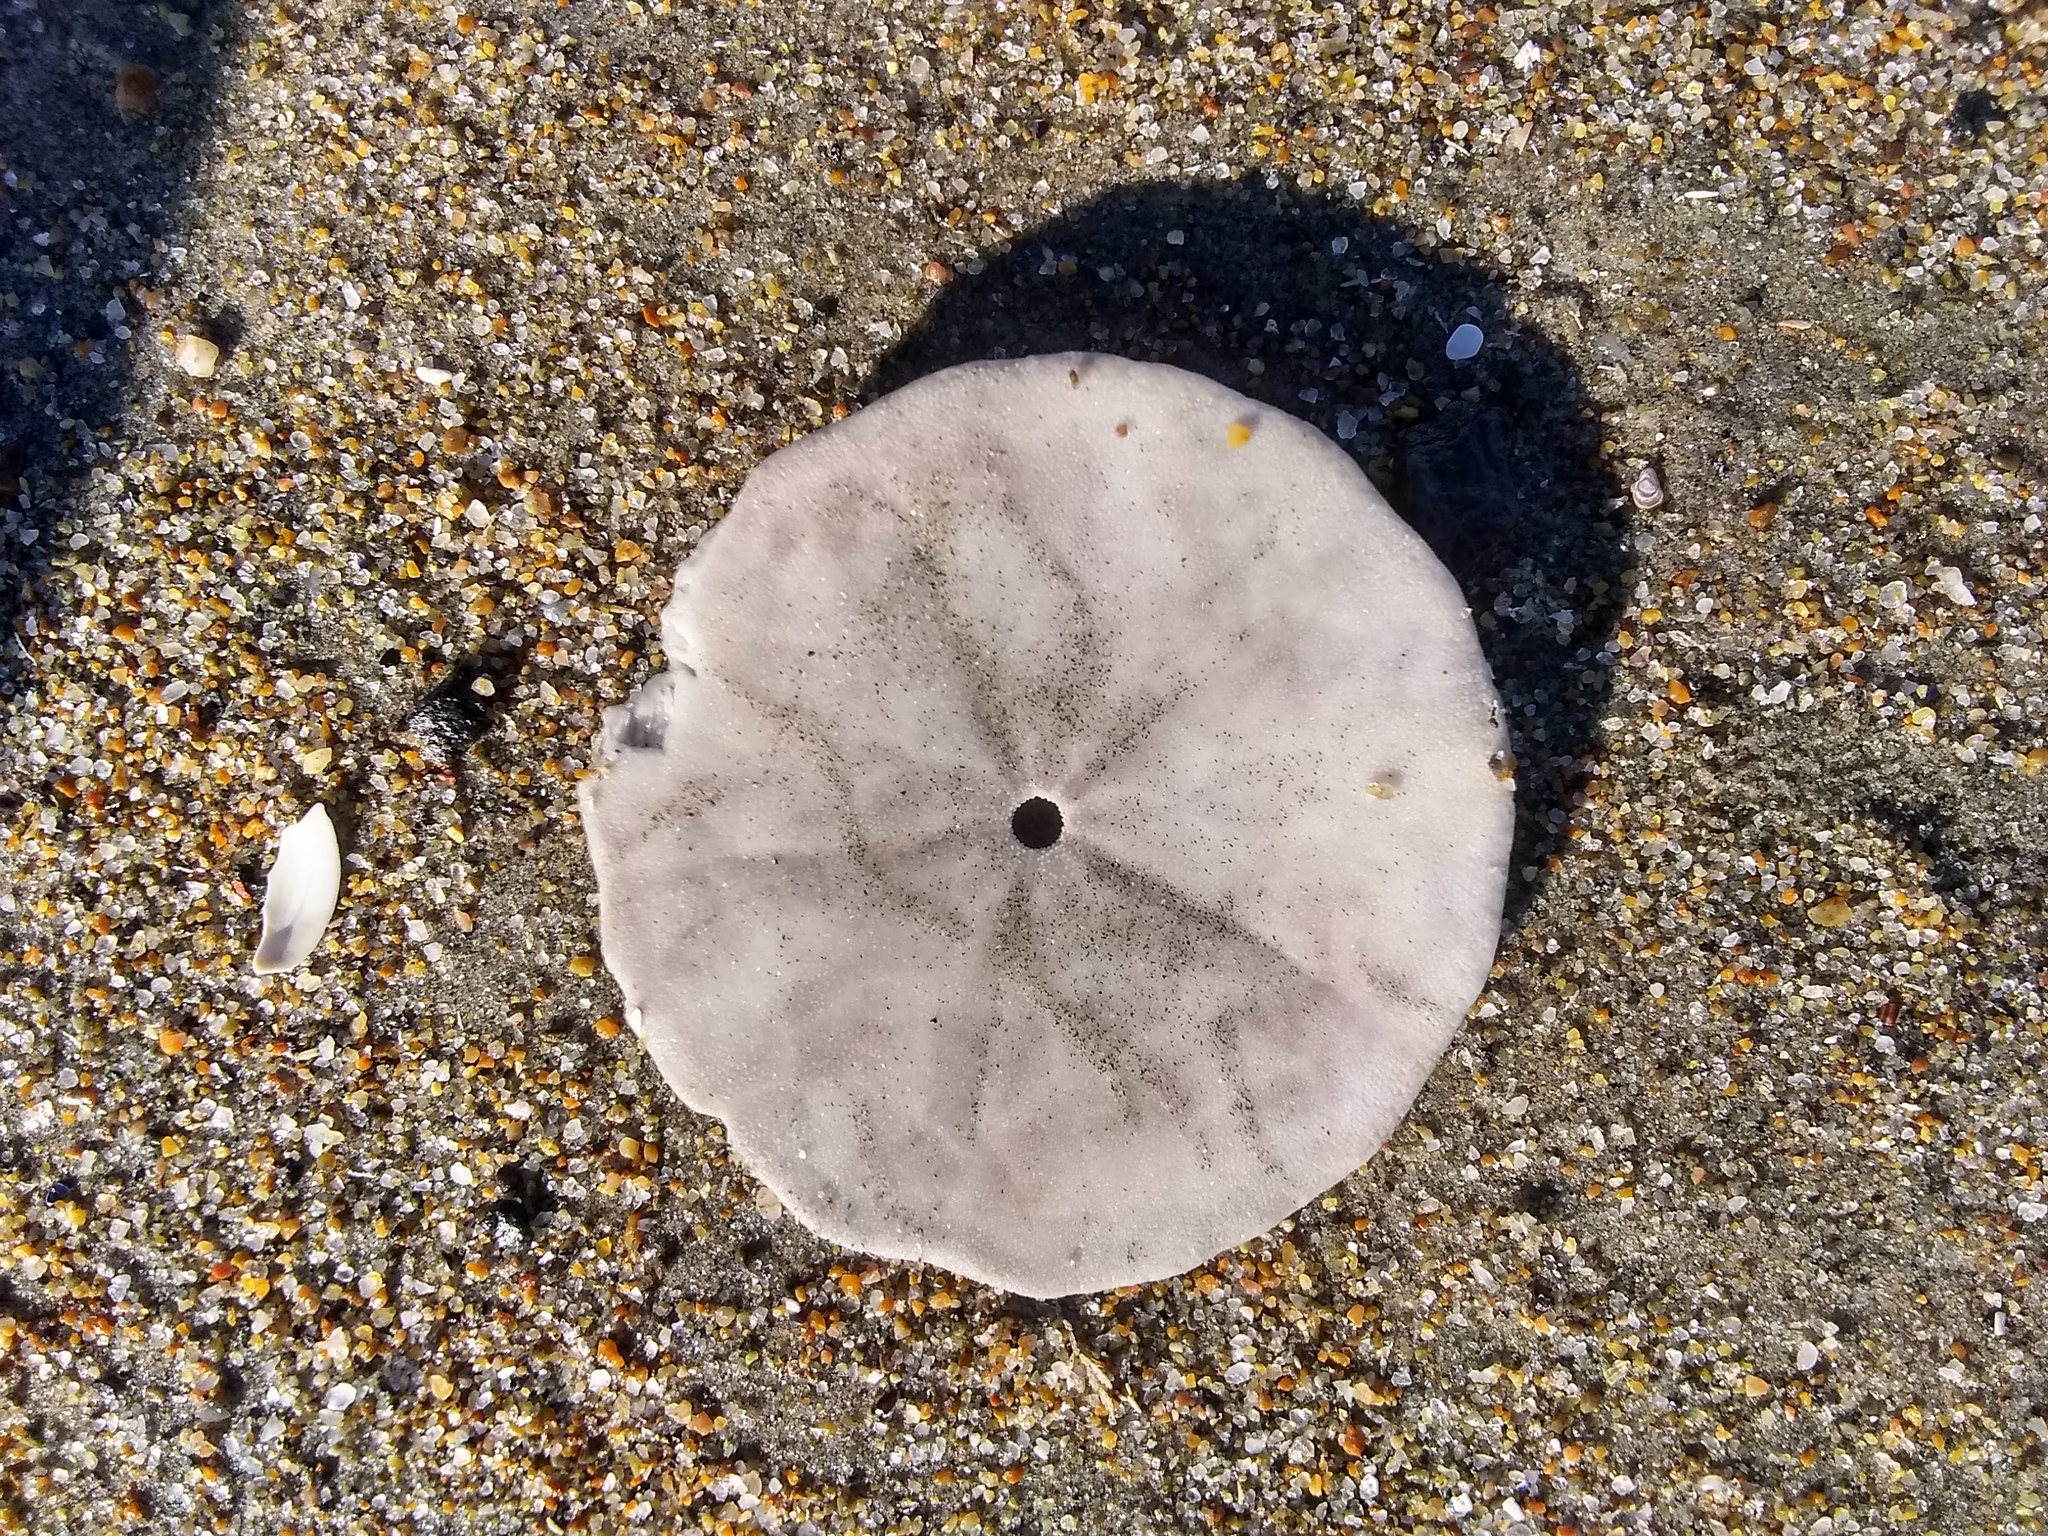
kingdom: Animalia
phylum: Echinodermata
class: Echinoidea
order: Echinolampadacea
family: Echinarachniidae
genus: Echinarachnius
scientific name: Echinarachnius parma
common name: Common sand dollar
